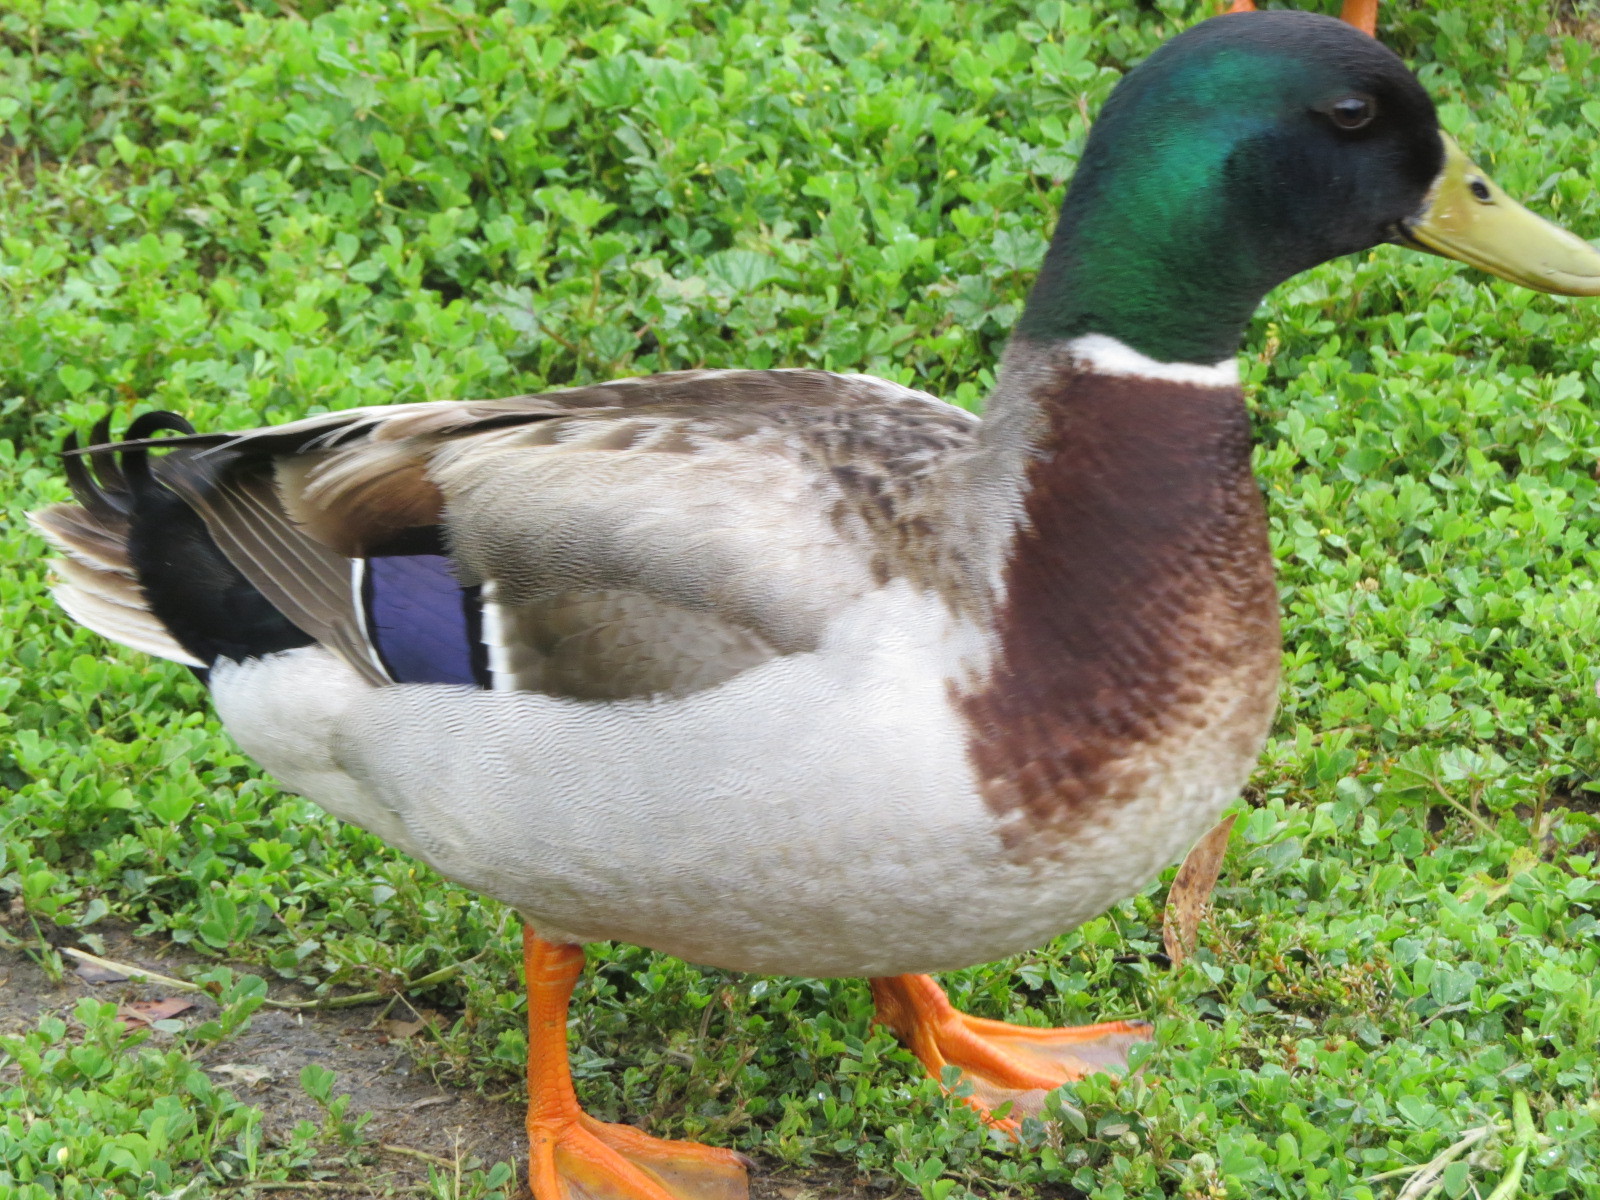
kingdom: Animalia
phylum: Chordata
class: Aves
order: Anseriformes
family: Anatidae
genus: Anas
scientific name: Anas platyrhynchos
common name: Mallard
